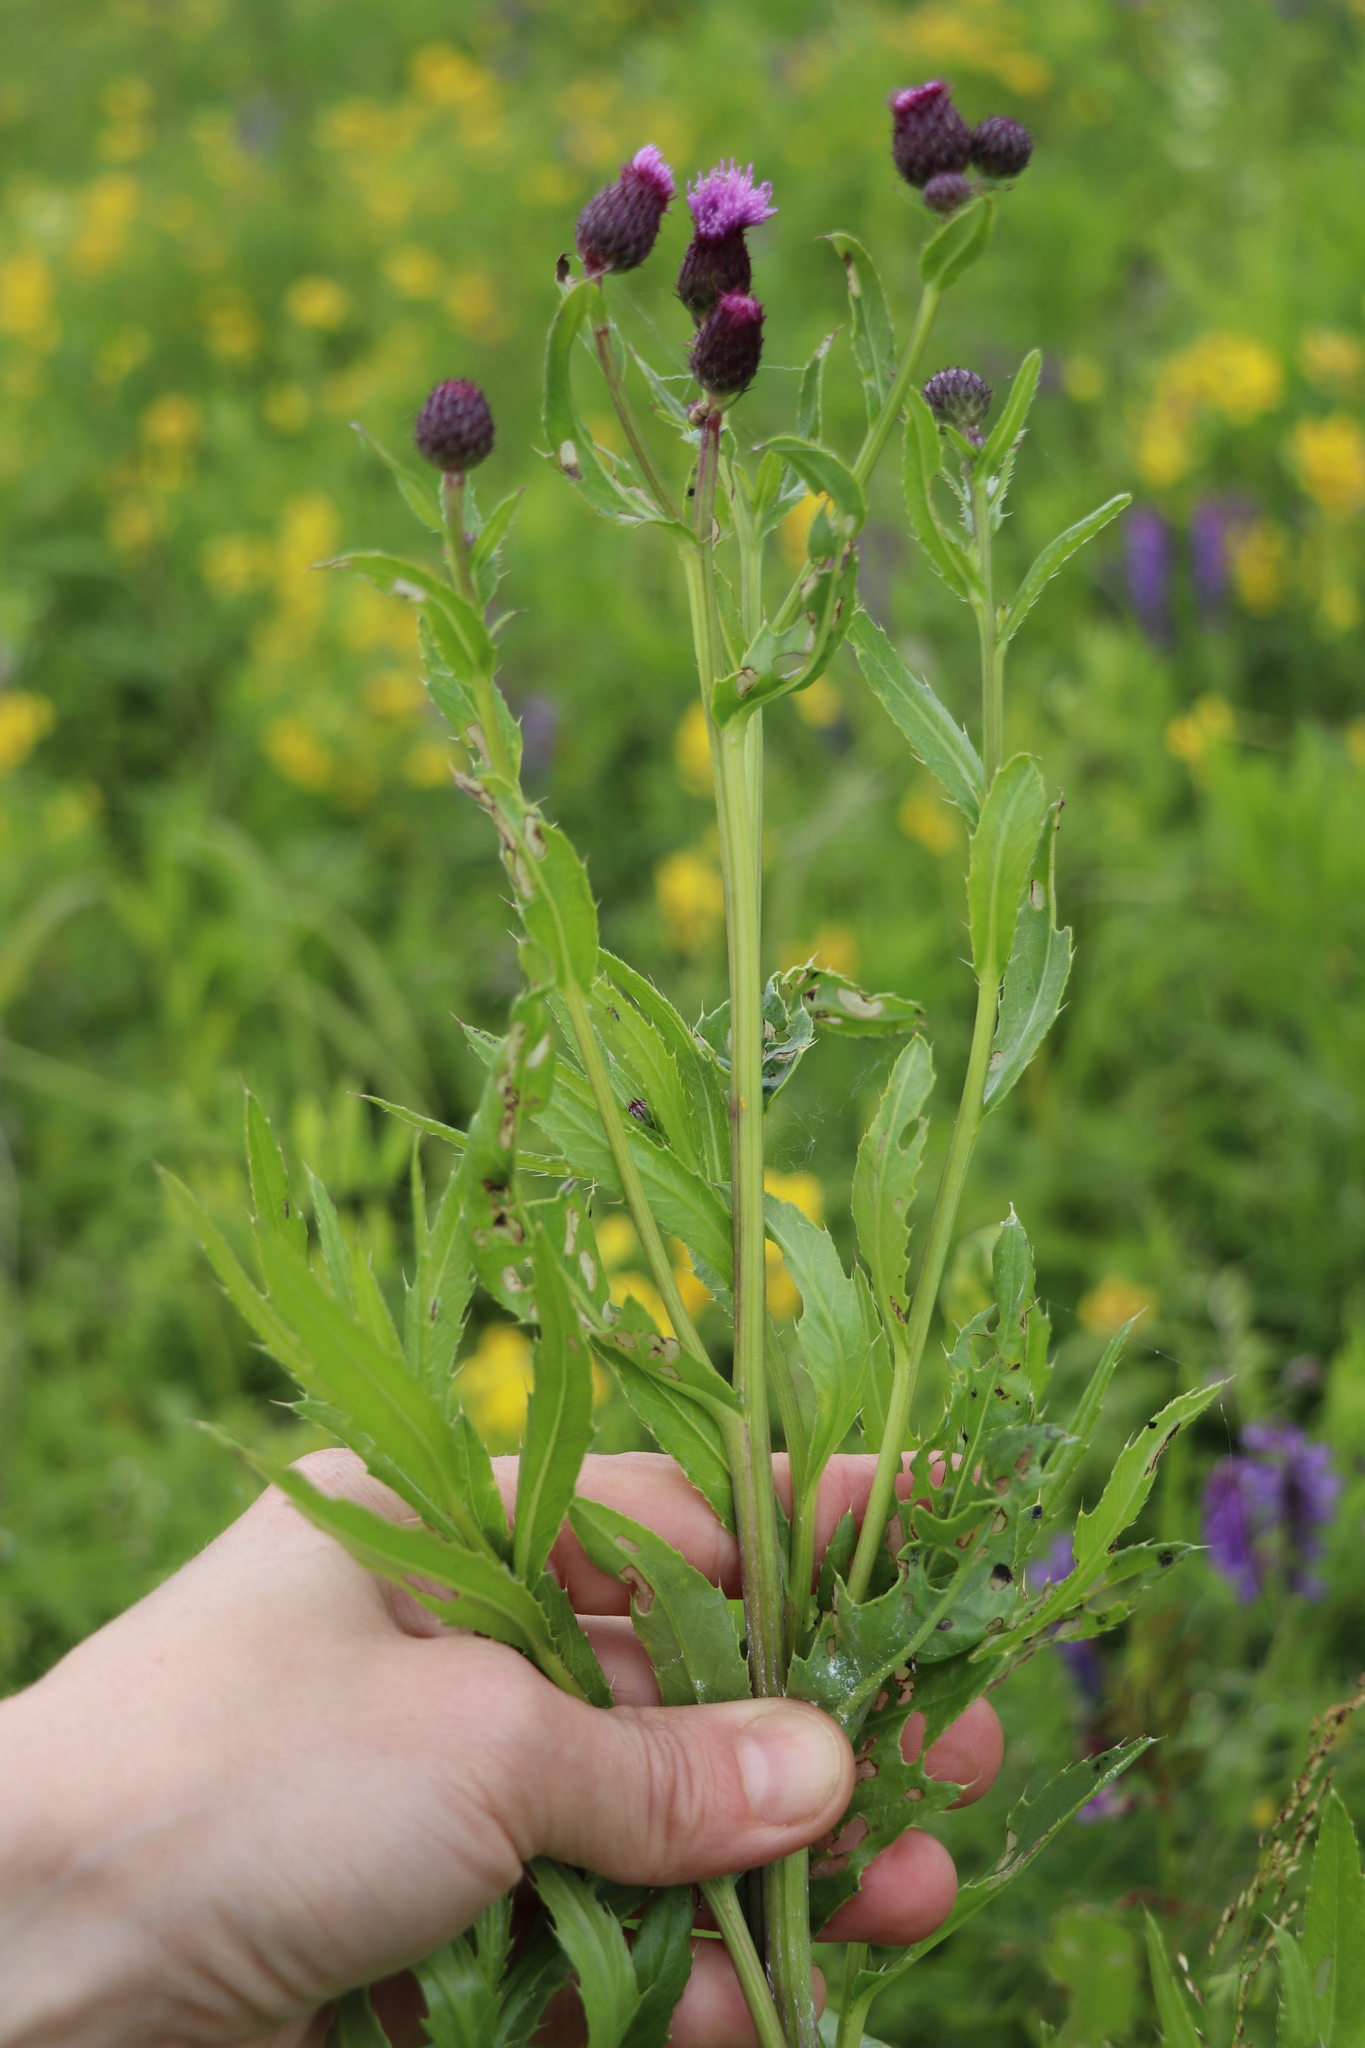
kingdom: Plantae
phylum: Tracheophyta
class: Magnoliopsida
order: Asterales
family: Asteraceae
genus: Cirsium
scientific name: Cirsium arvense
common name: Creeping thistle
